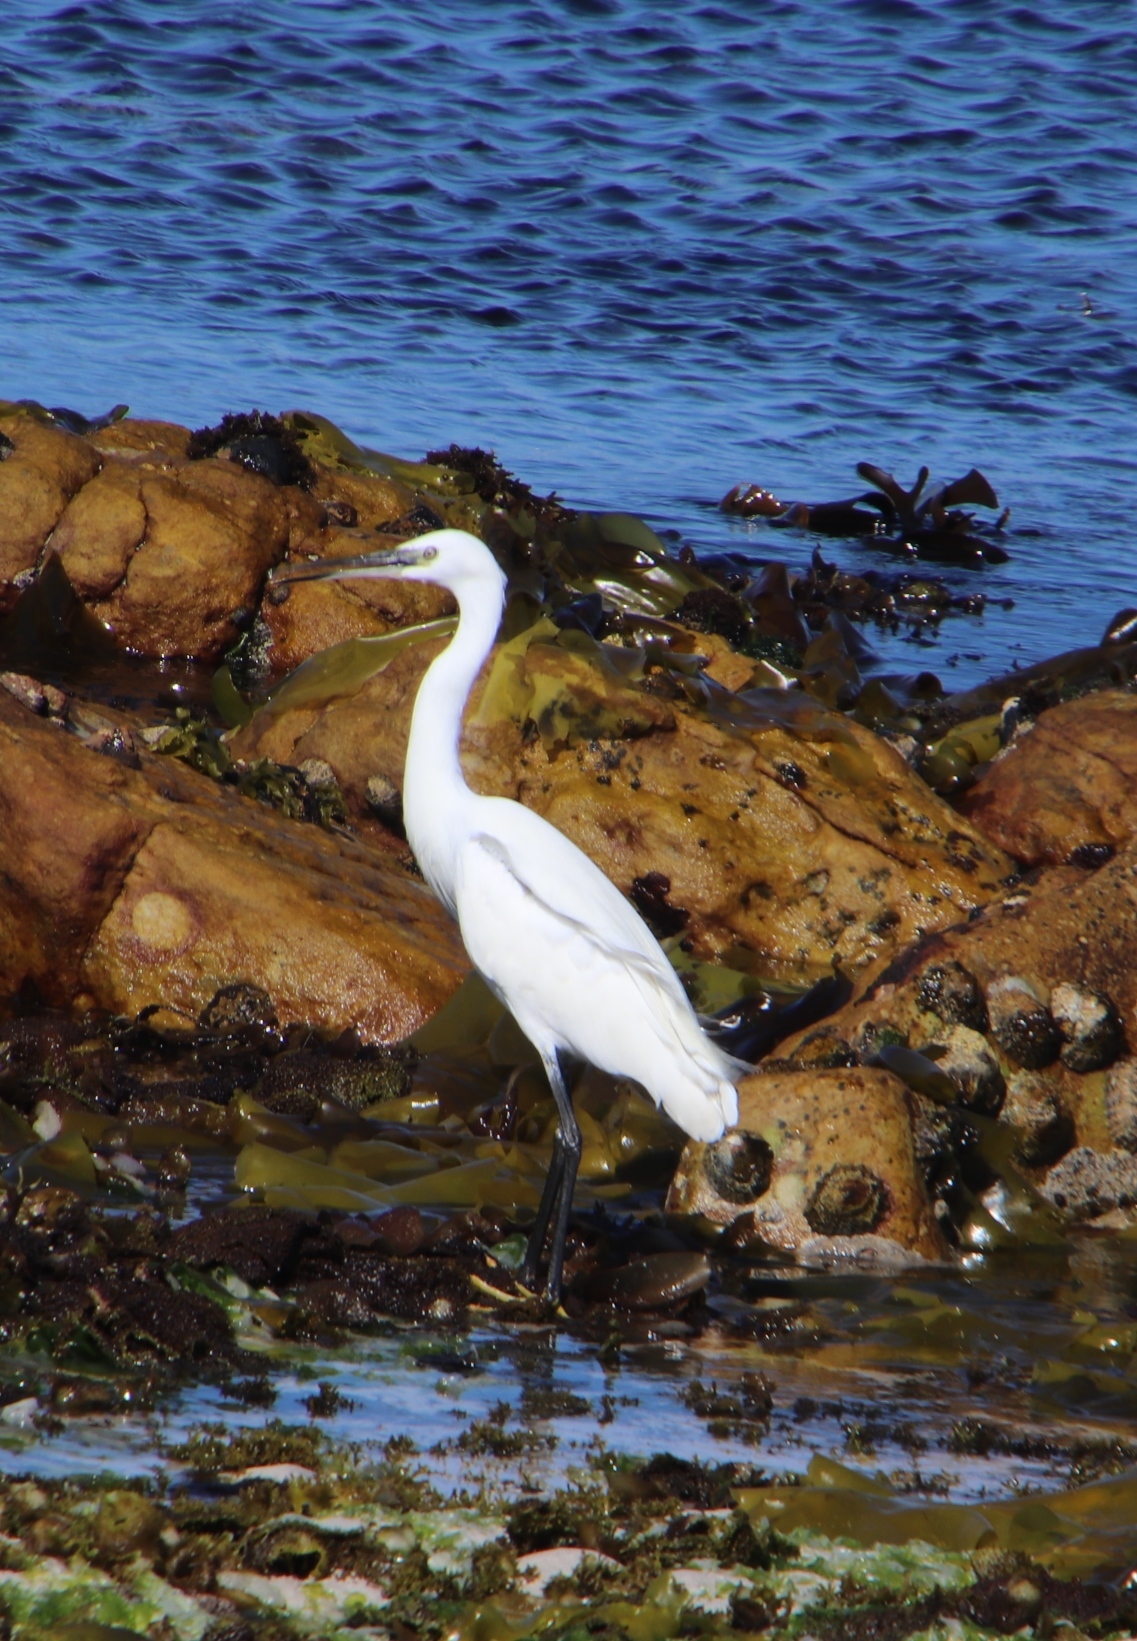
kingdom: Animalia
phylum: Chordata
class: Aves
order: Pelecaniformes
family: Ardeidae
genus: Egretta
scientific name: Egretta garzetta
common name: Little egret
